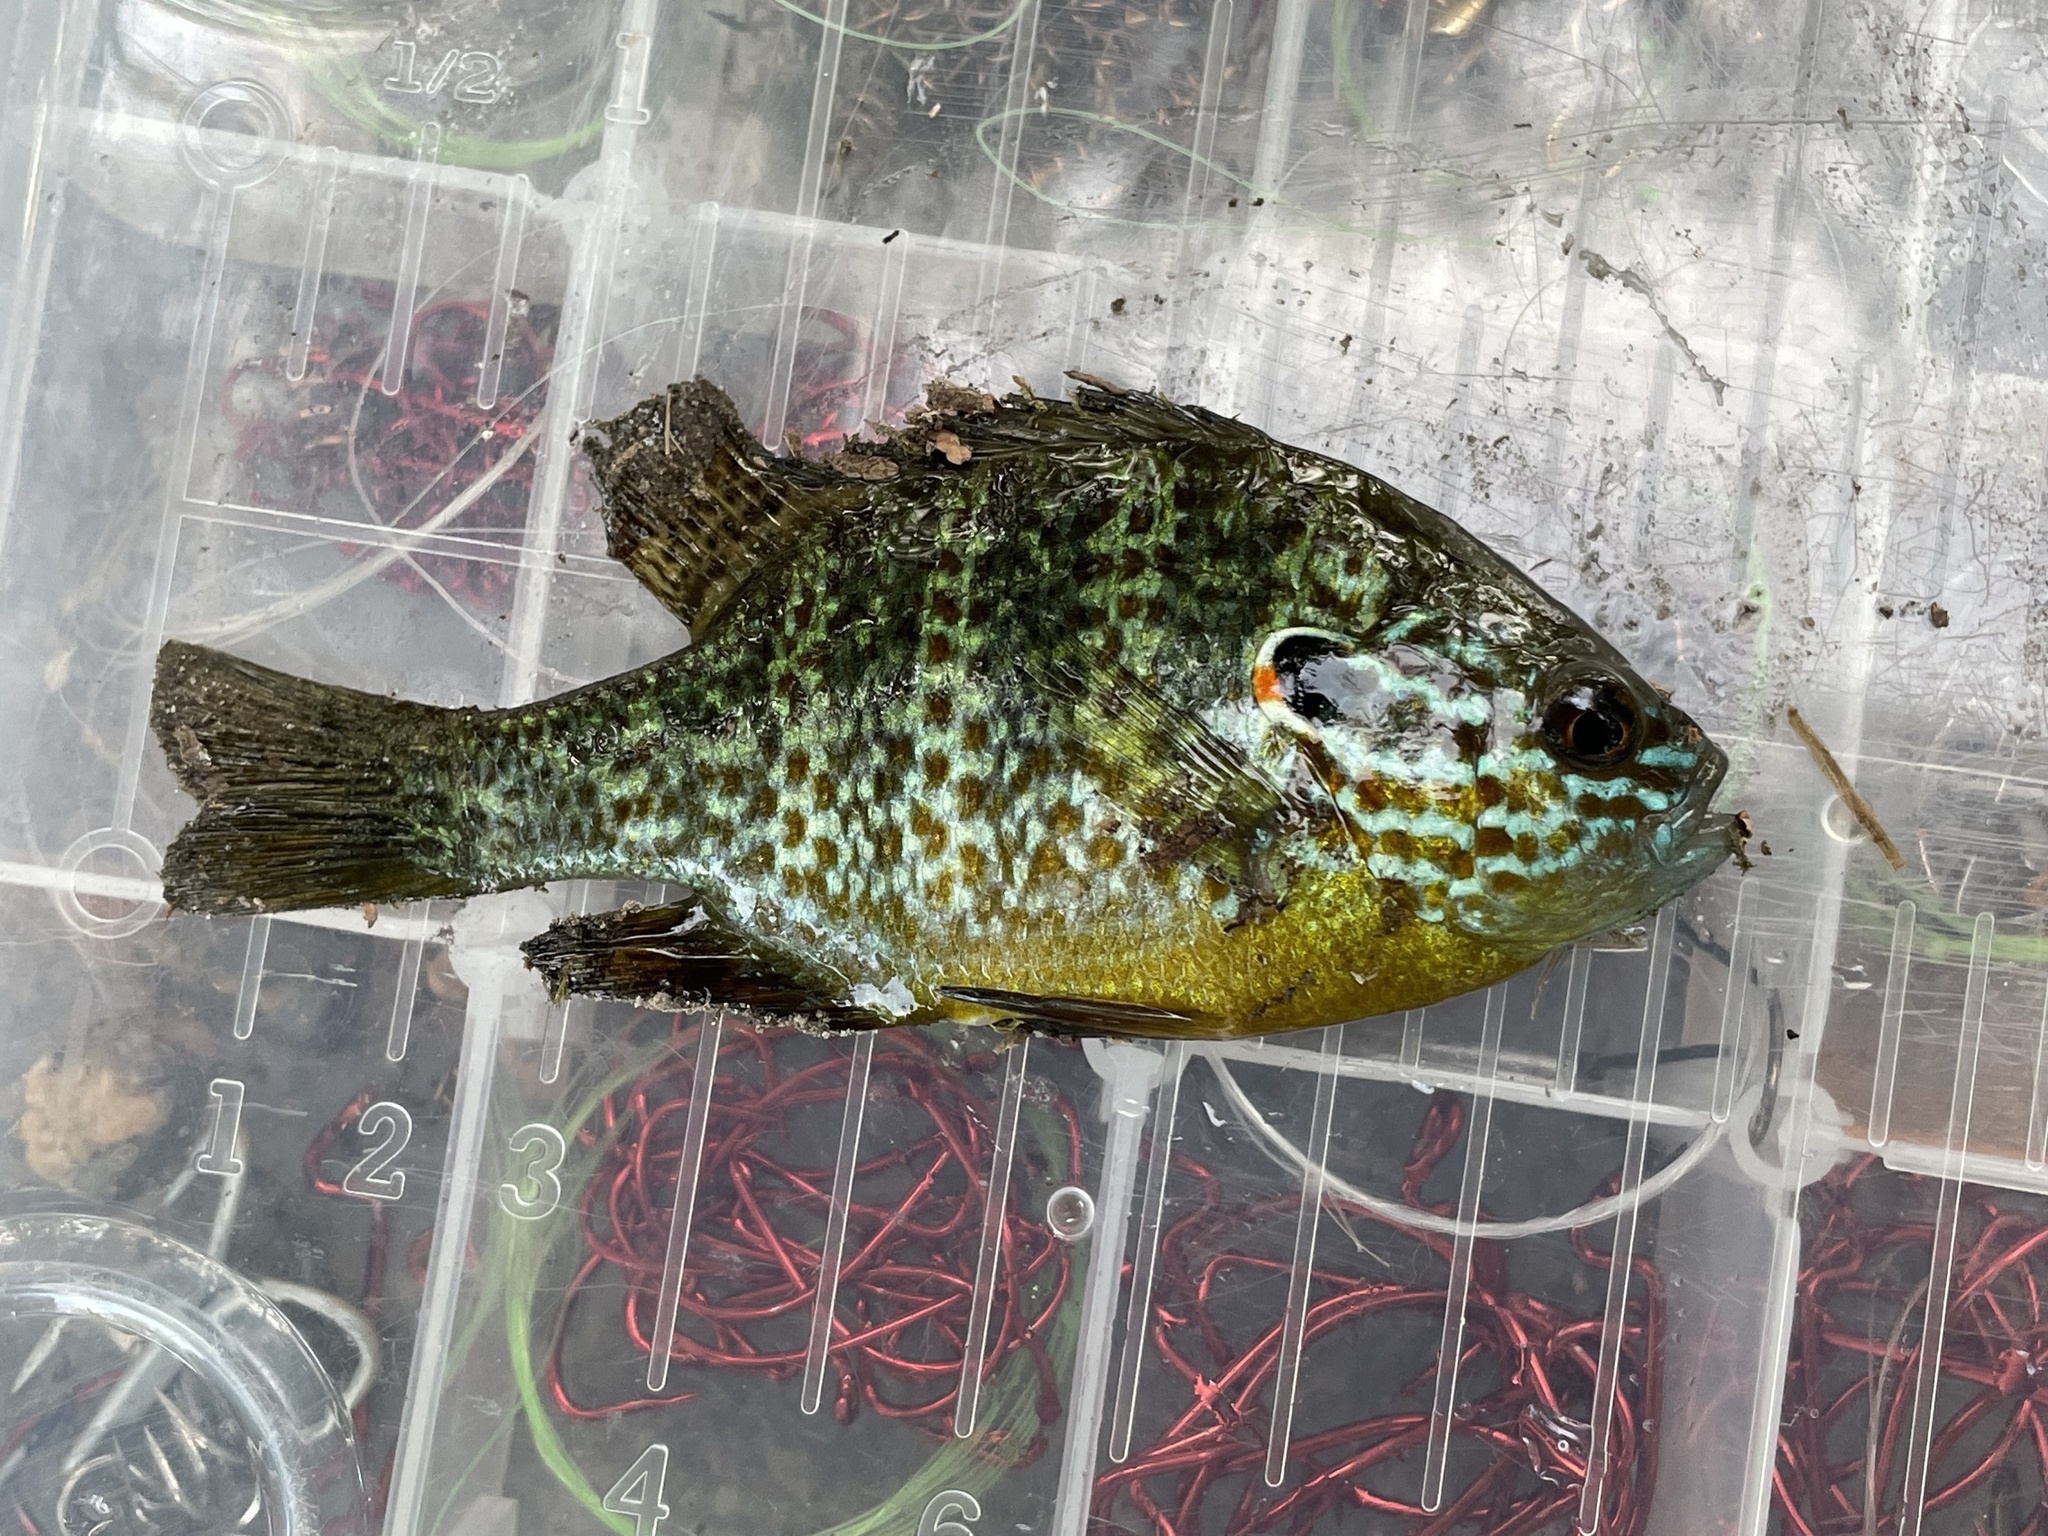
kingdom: Animalia
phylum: Chordata
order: Perciformes
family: Centrarchidae
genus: Lepomis
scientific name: Lepomis gibbosus
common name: Pumpkinseed
